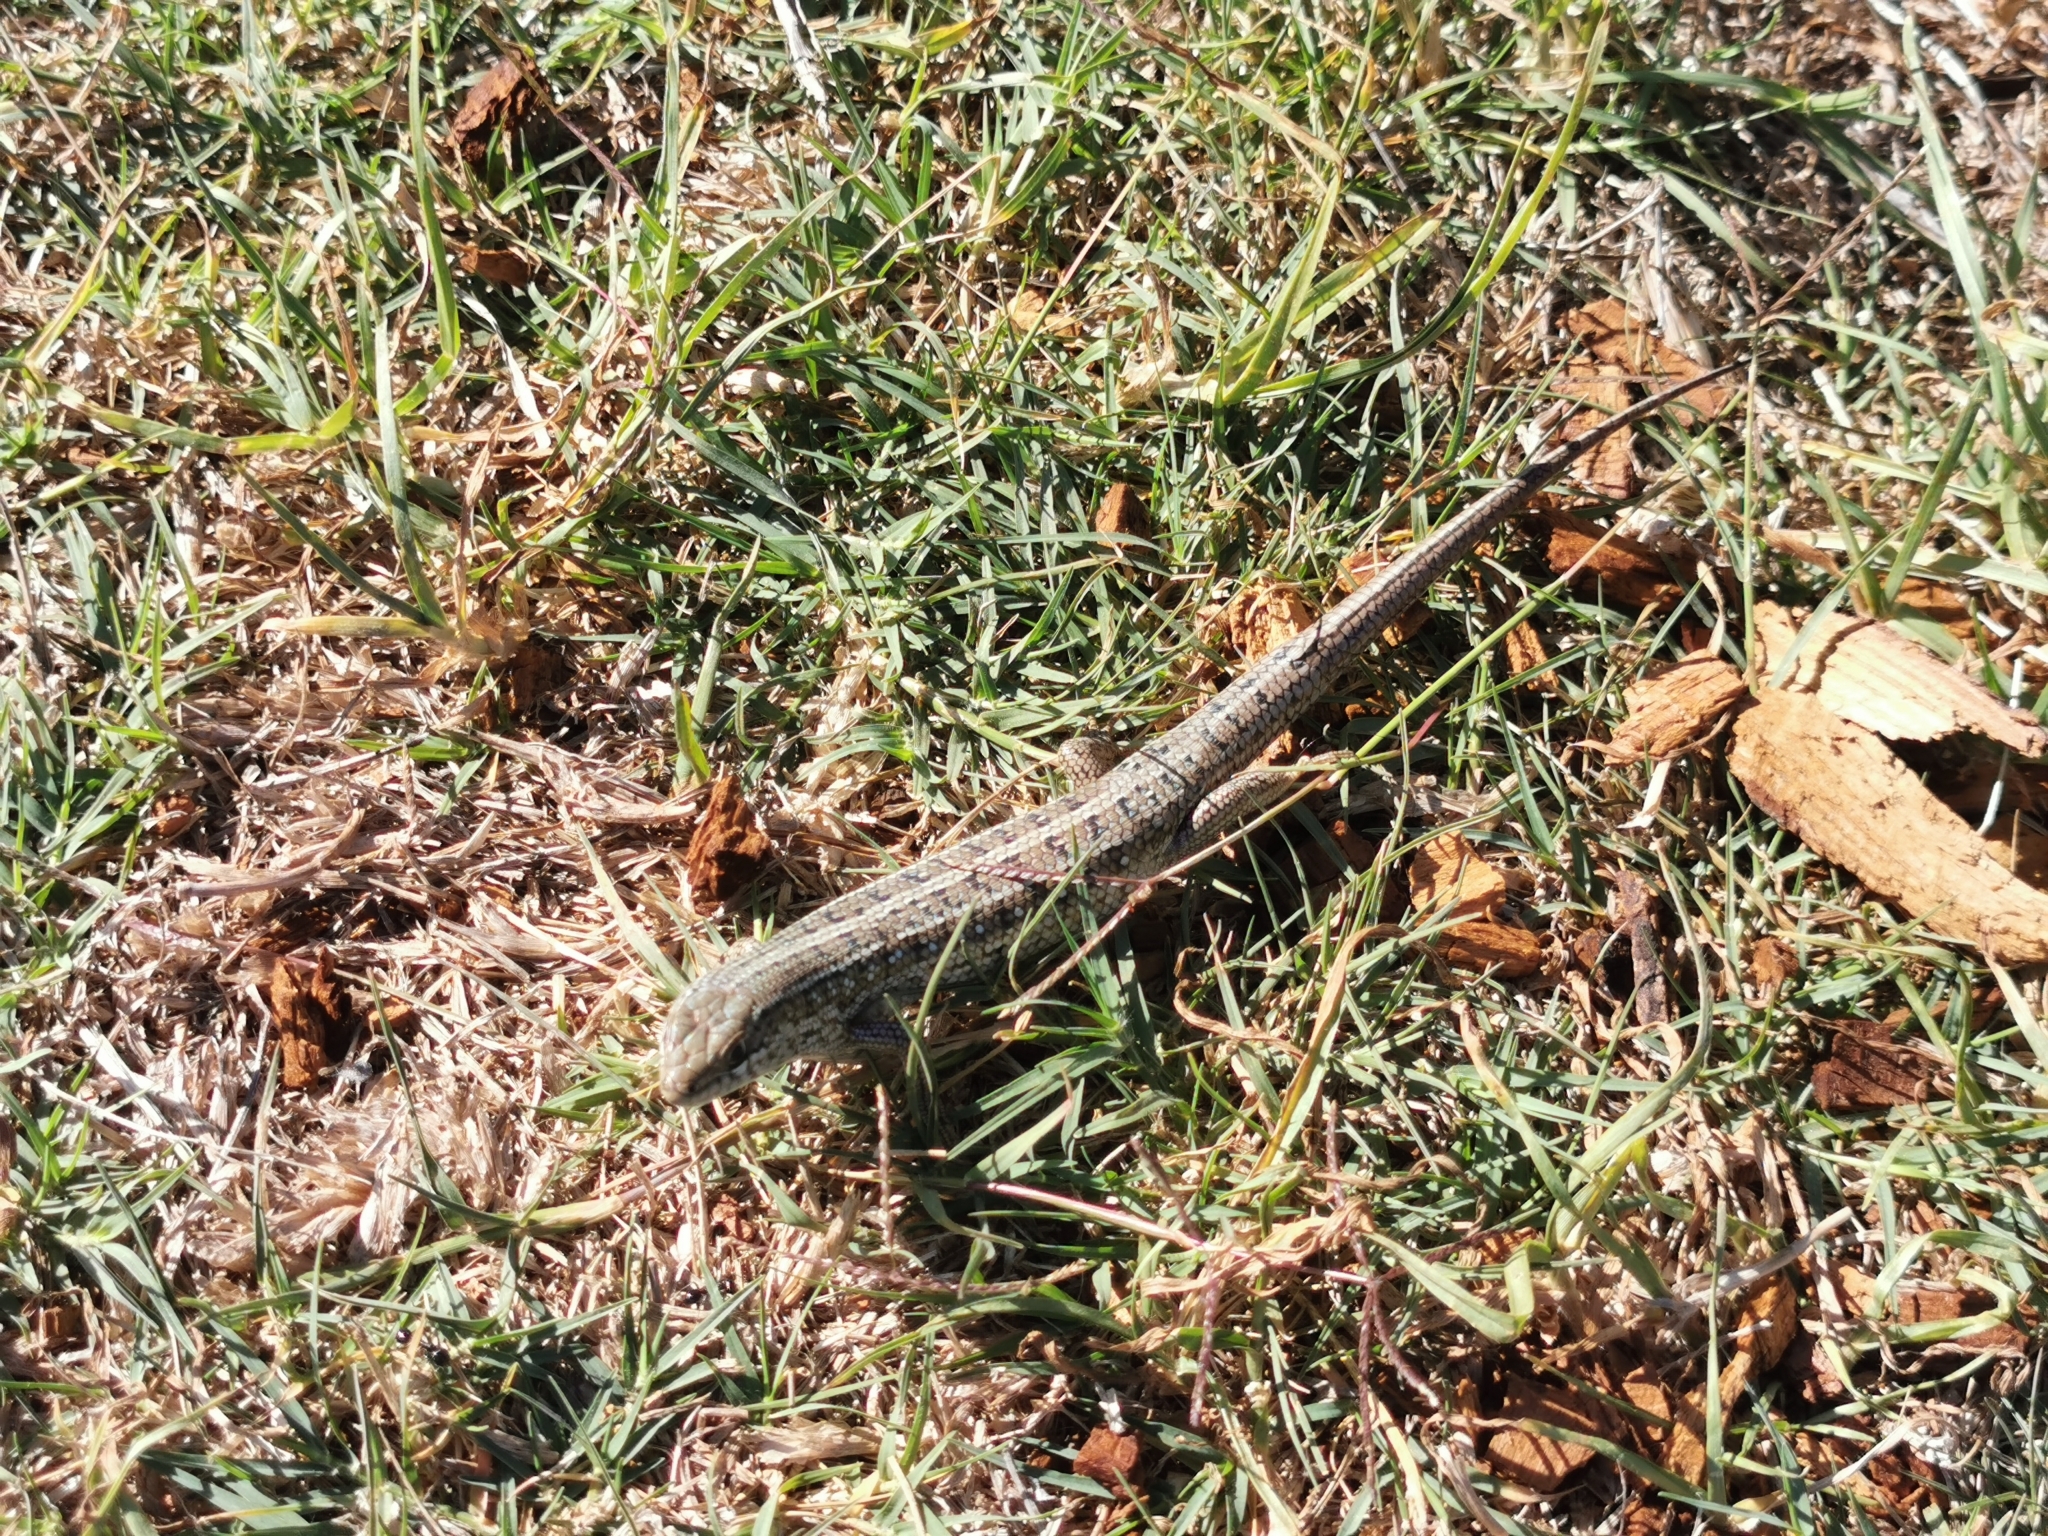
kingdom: Animalia
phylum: Chordata
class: Squamata
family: Scincidae
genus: Trachylepis
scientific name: Trachylepis capensis
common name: Cape skink
